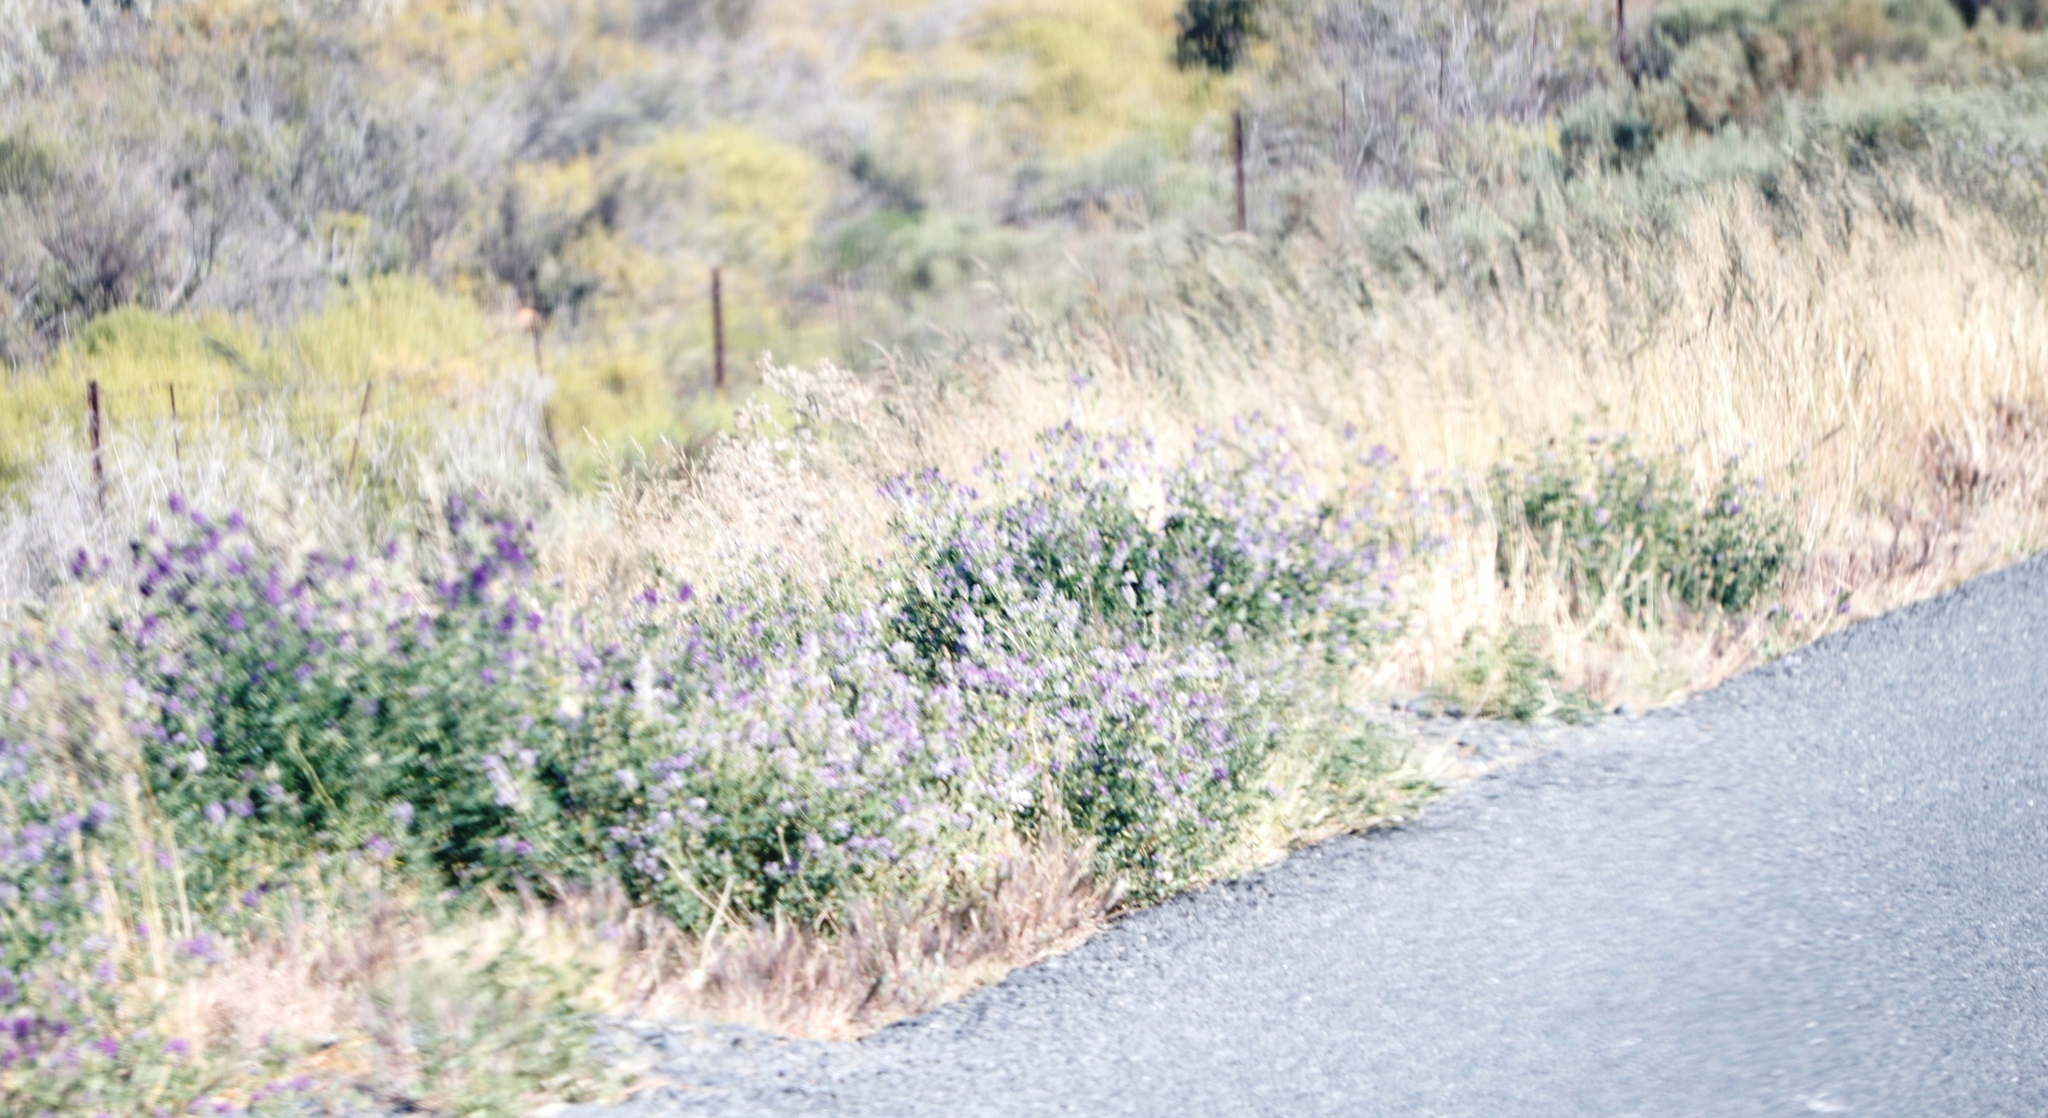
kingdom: Plantae
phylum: Tracheophyta
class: Magnoliopsida
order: Fabales
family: Fabaceae
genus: Medicago
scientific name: Medicago sativa
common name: Alfalfa
